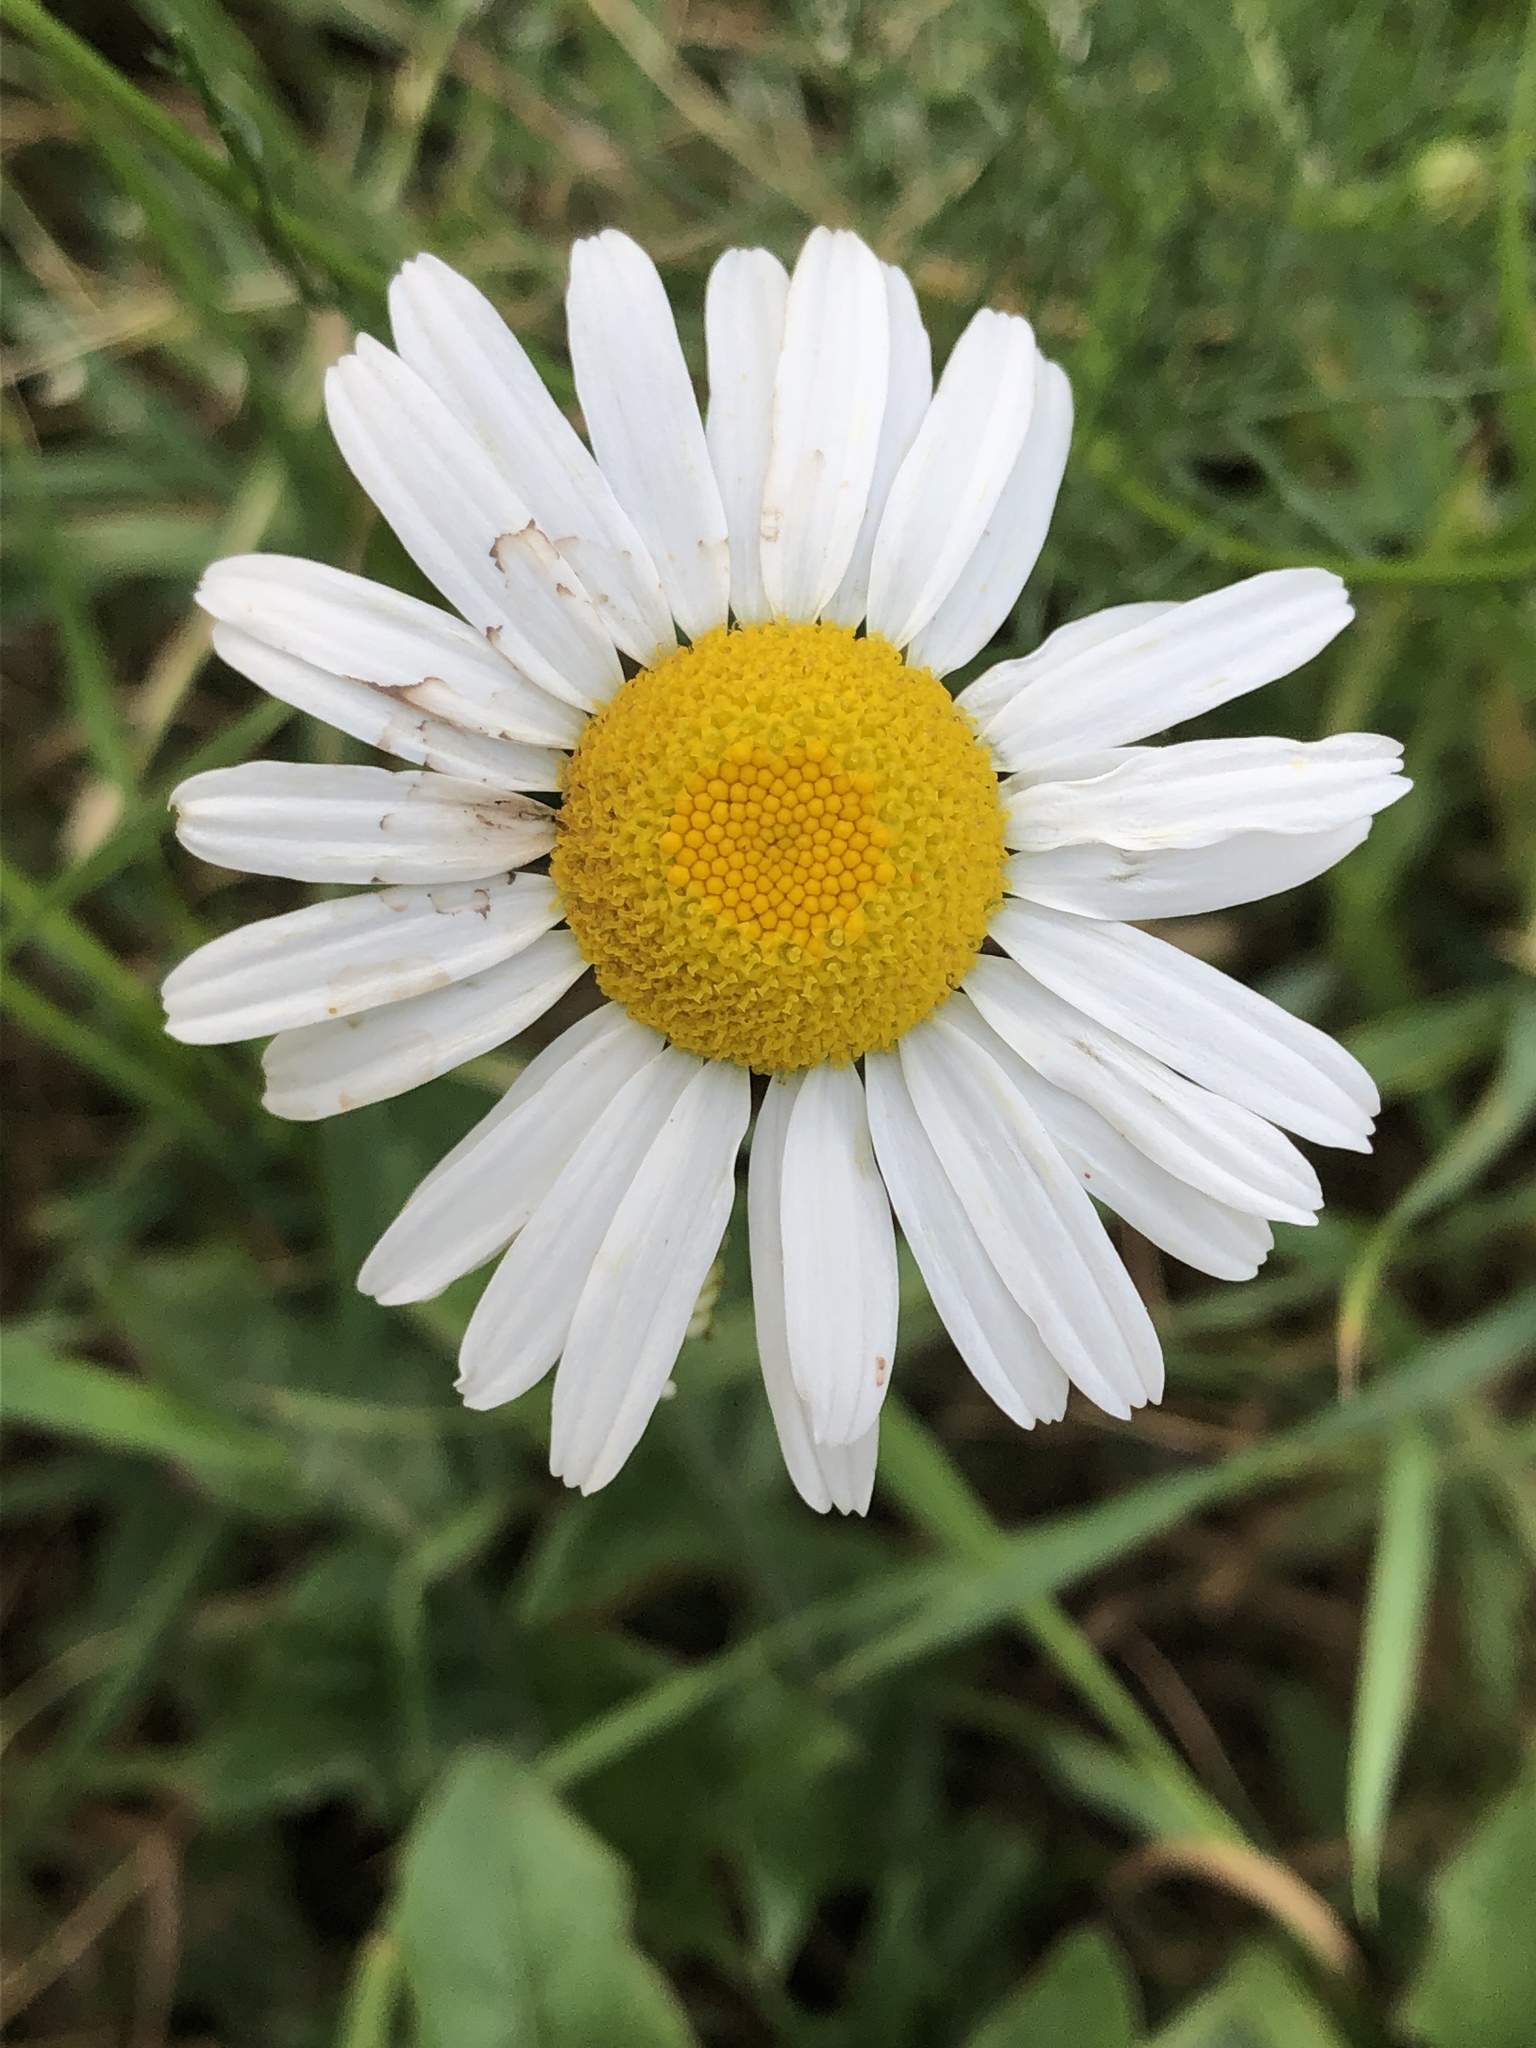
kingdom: Plantae
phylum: Tracheophyta
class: Magnoliopsida
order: Asterales
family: Asteraceae
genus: Leucanthemum
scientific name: Leucanthemum vulgare
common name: Oxeye daisy
